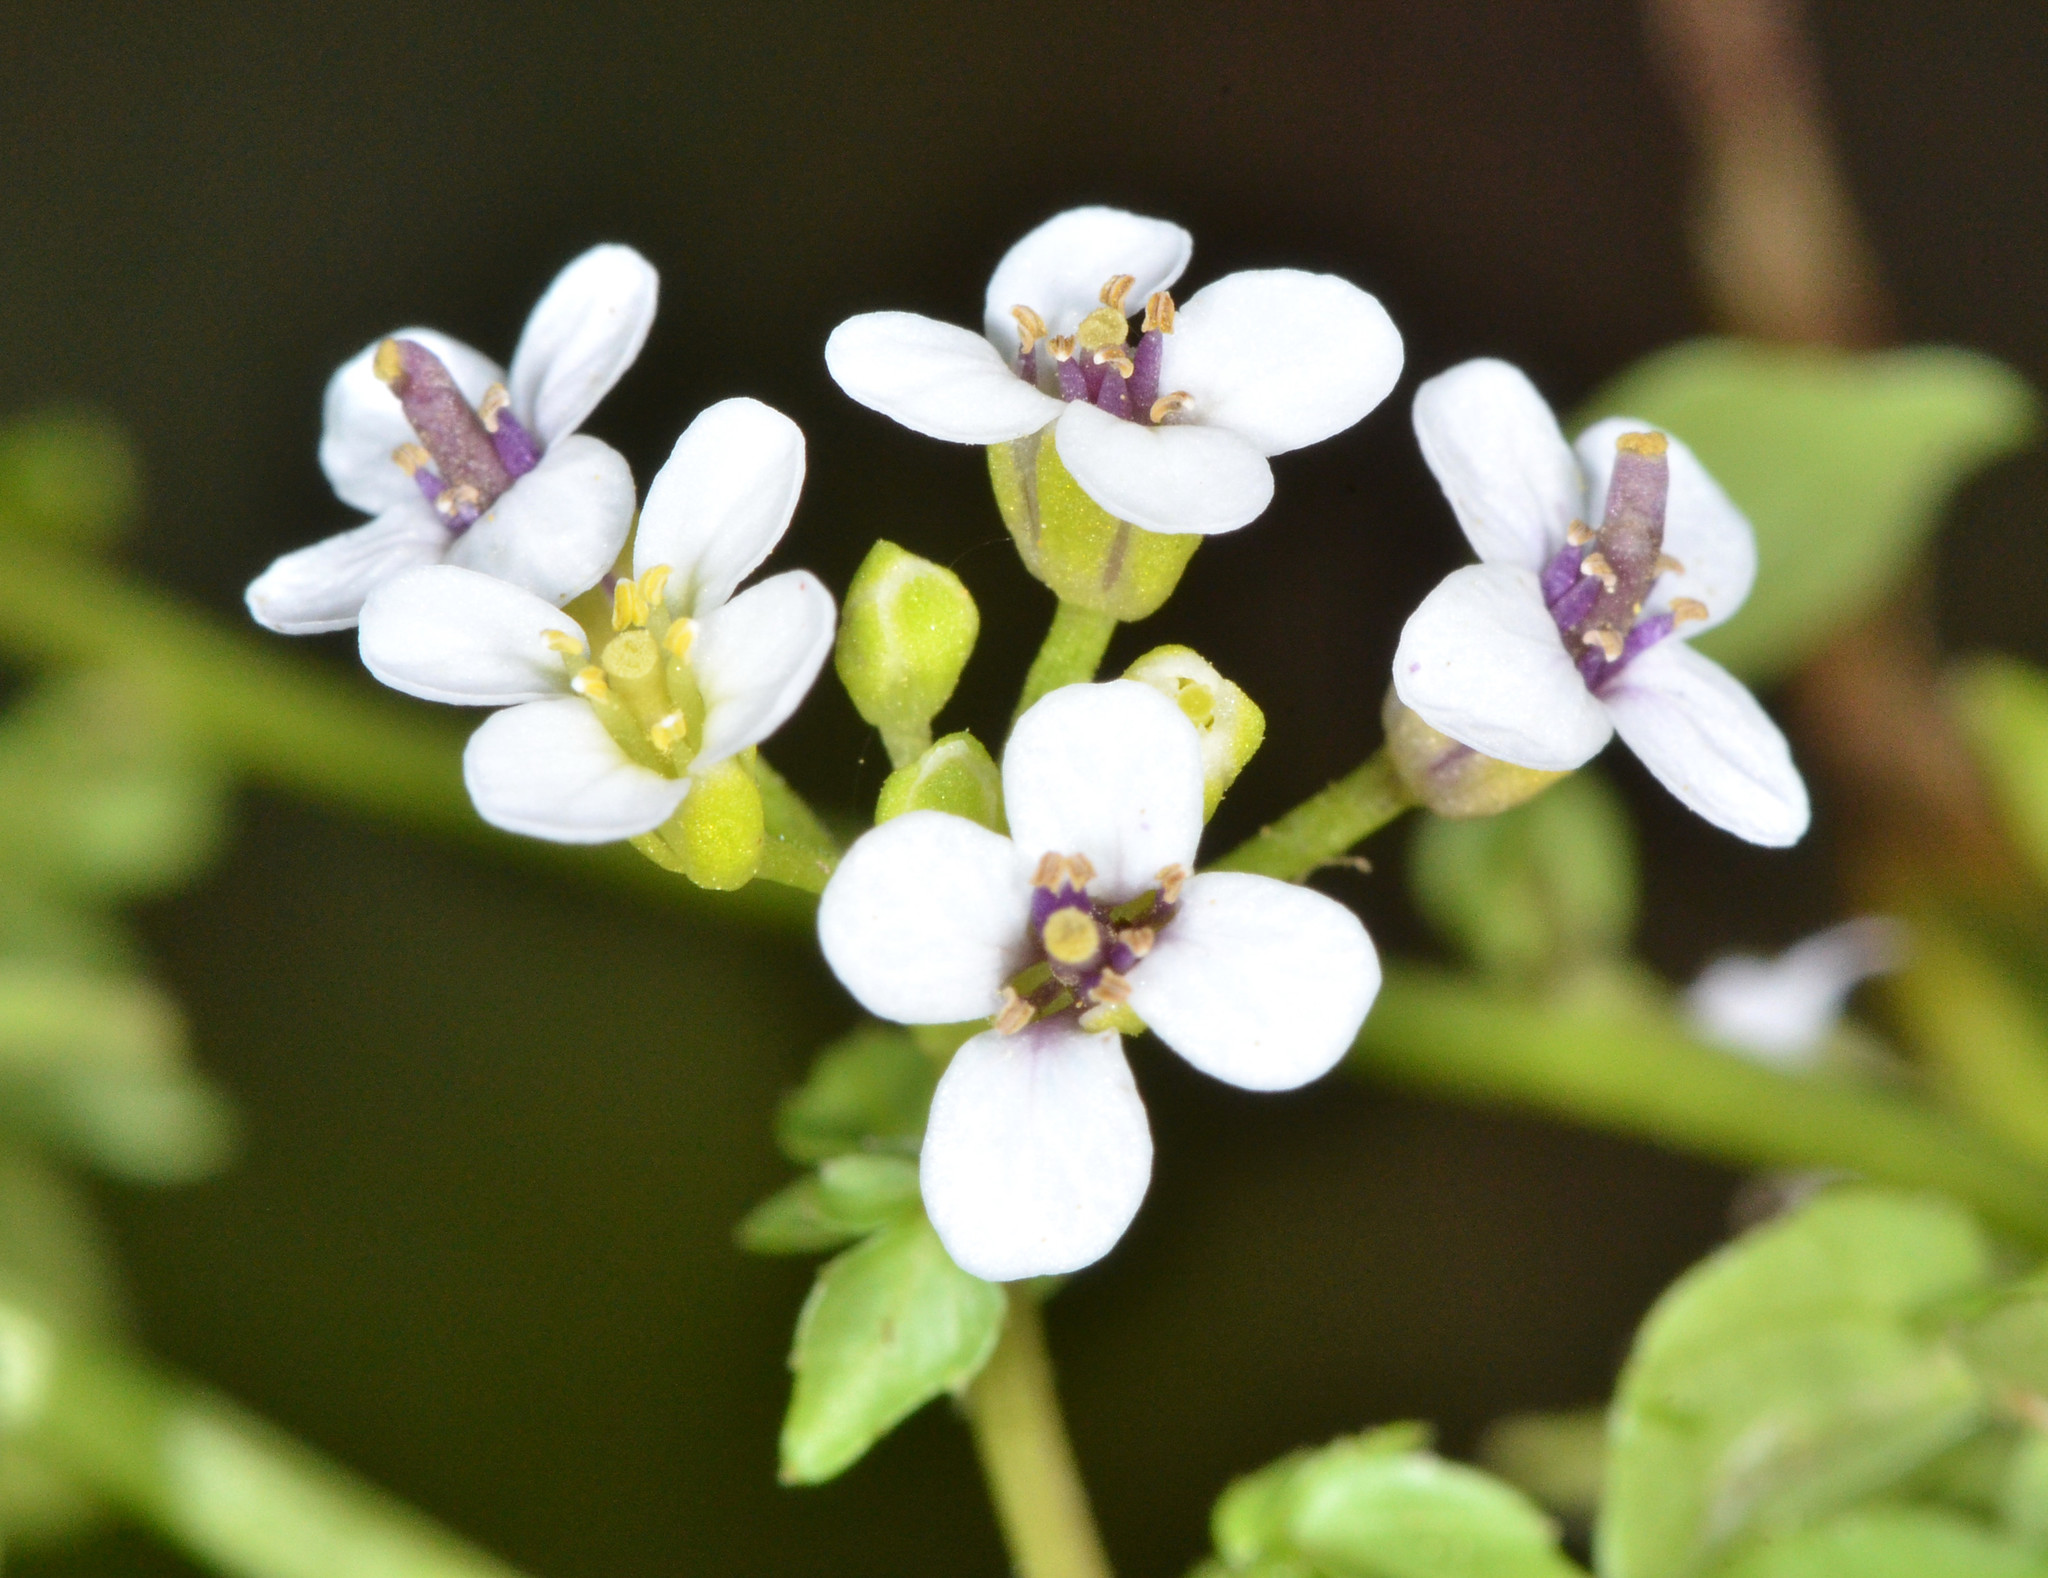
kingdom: Plantae
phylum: Tracheophyta
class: Magnoliopsida
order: Brassicales
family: Brassicaceae
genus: Nasturtium
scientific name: Nasturtium officinale
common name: Watercress
